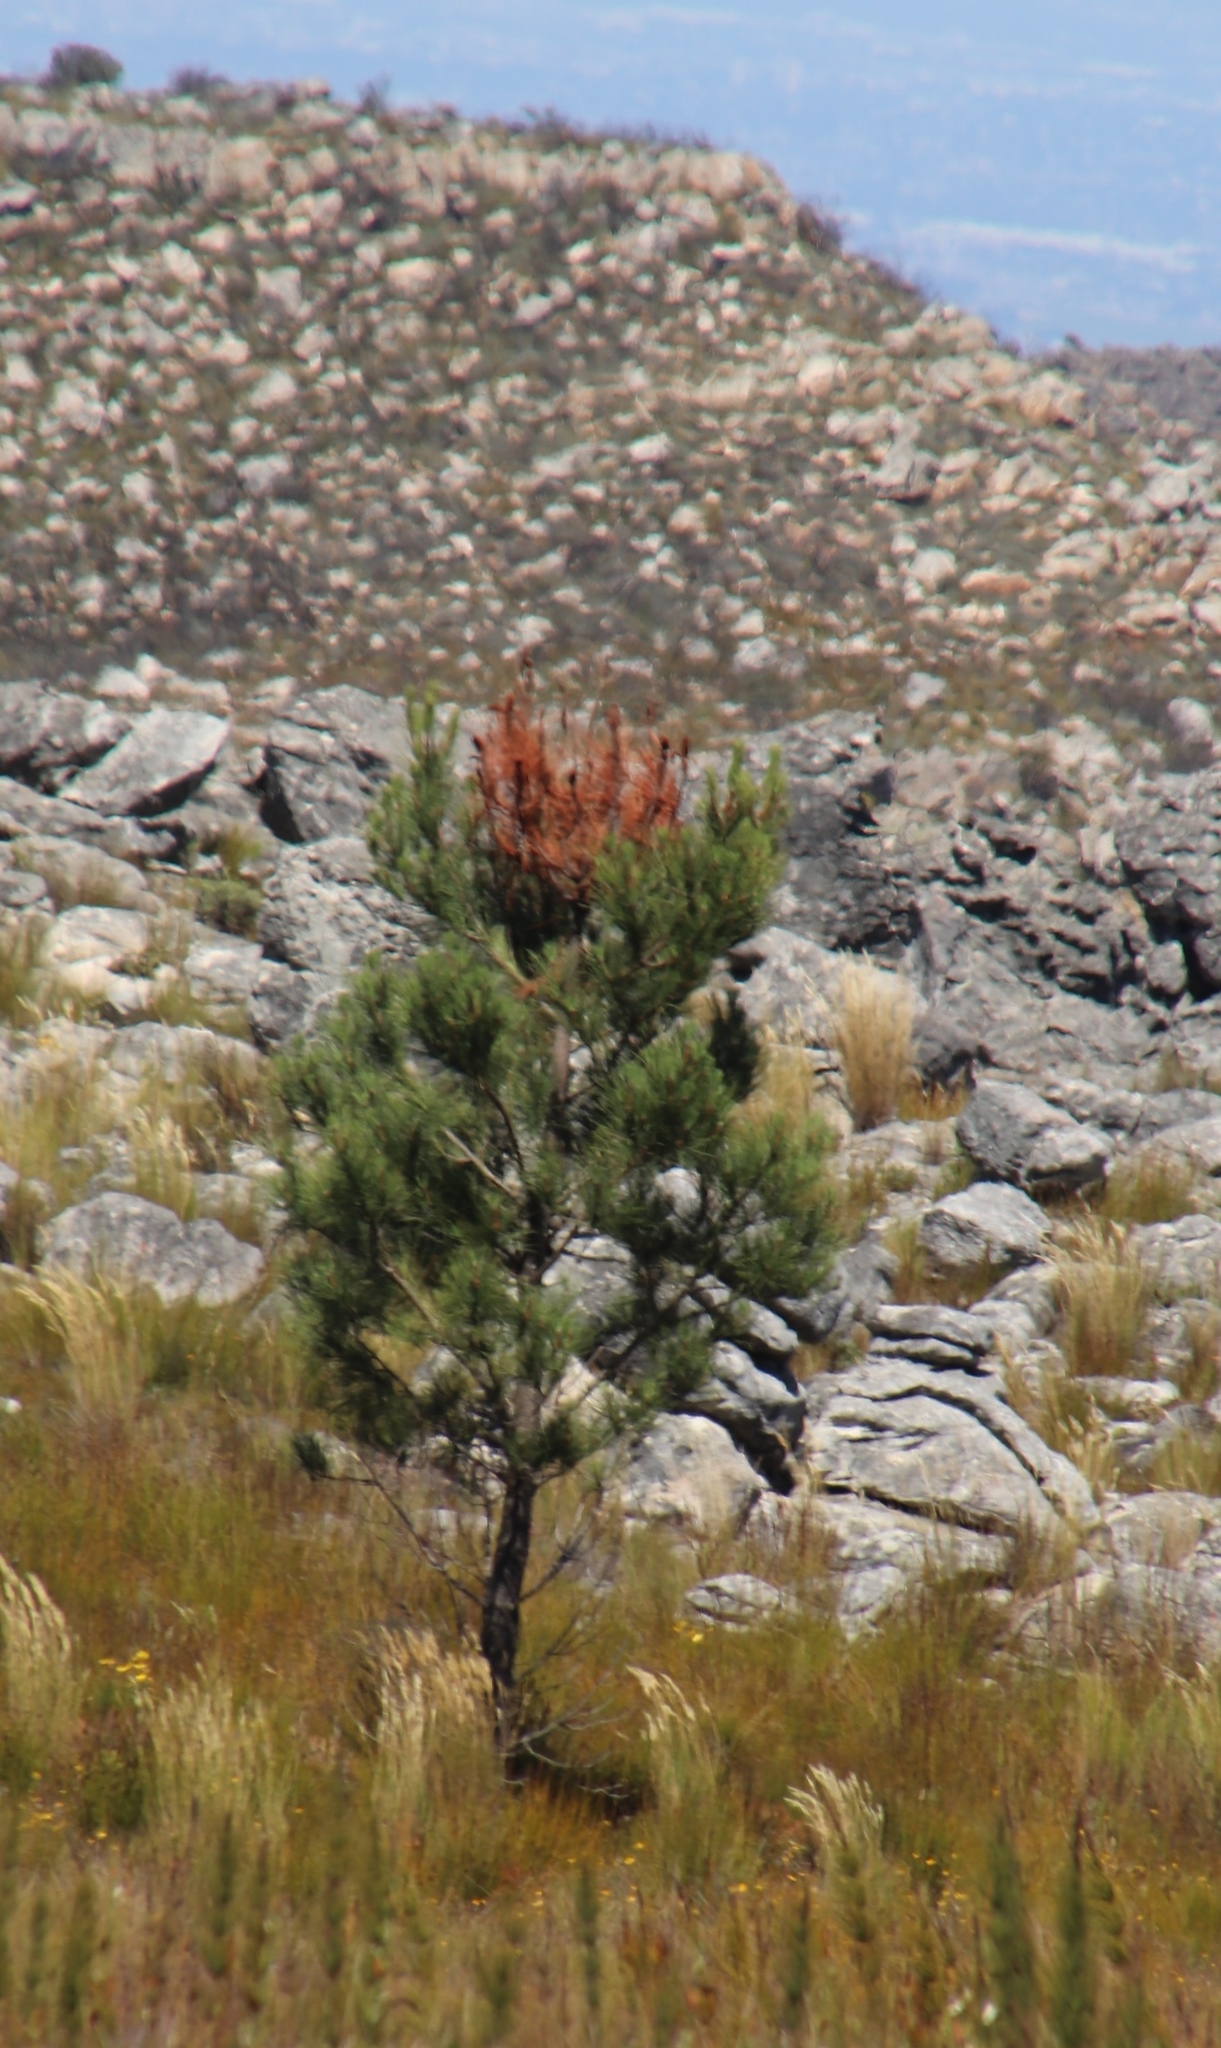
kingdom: Plantae
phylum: Tracheophyta
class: Pinopsida
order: Pinales
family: Pinaceae
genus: Pinus
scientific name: Pinus pinaster
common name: Maritime pine
